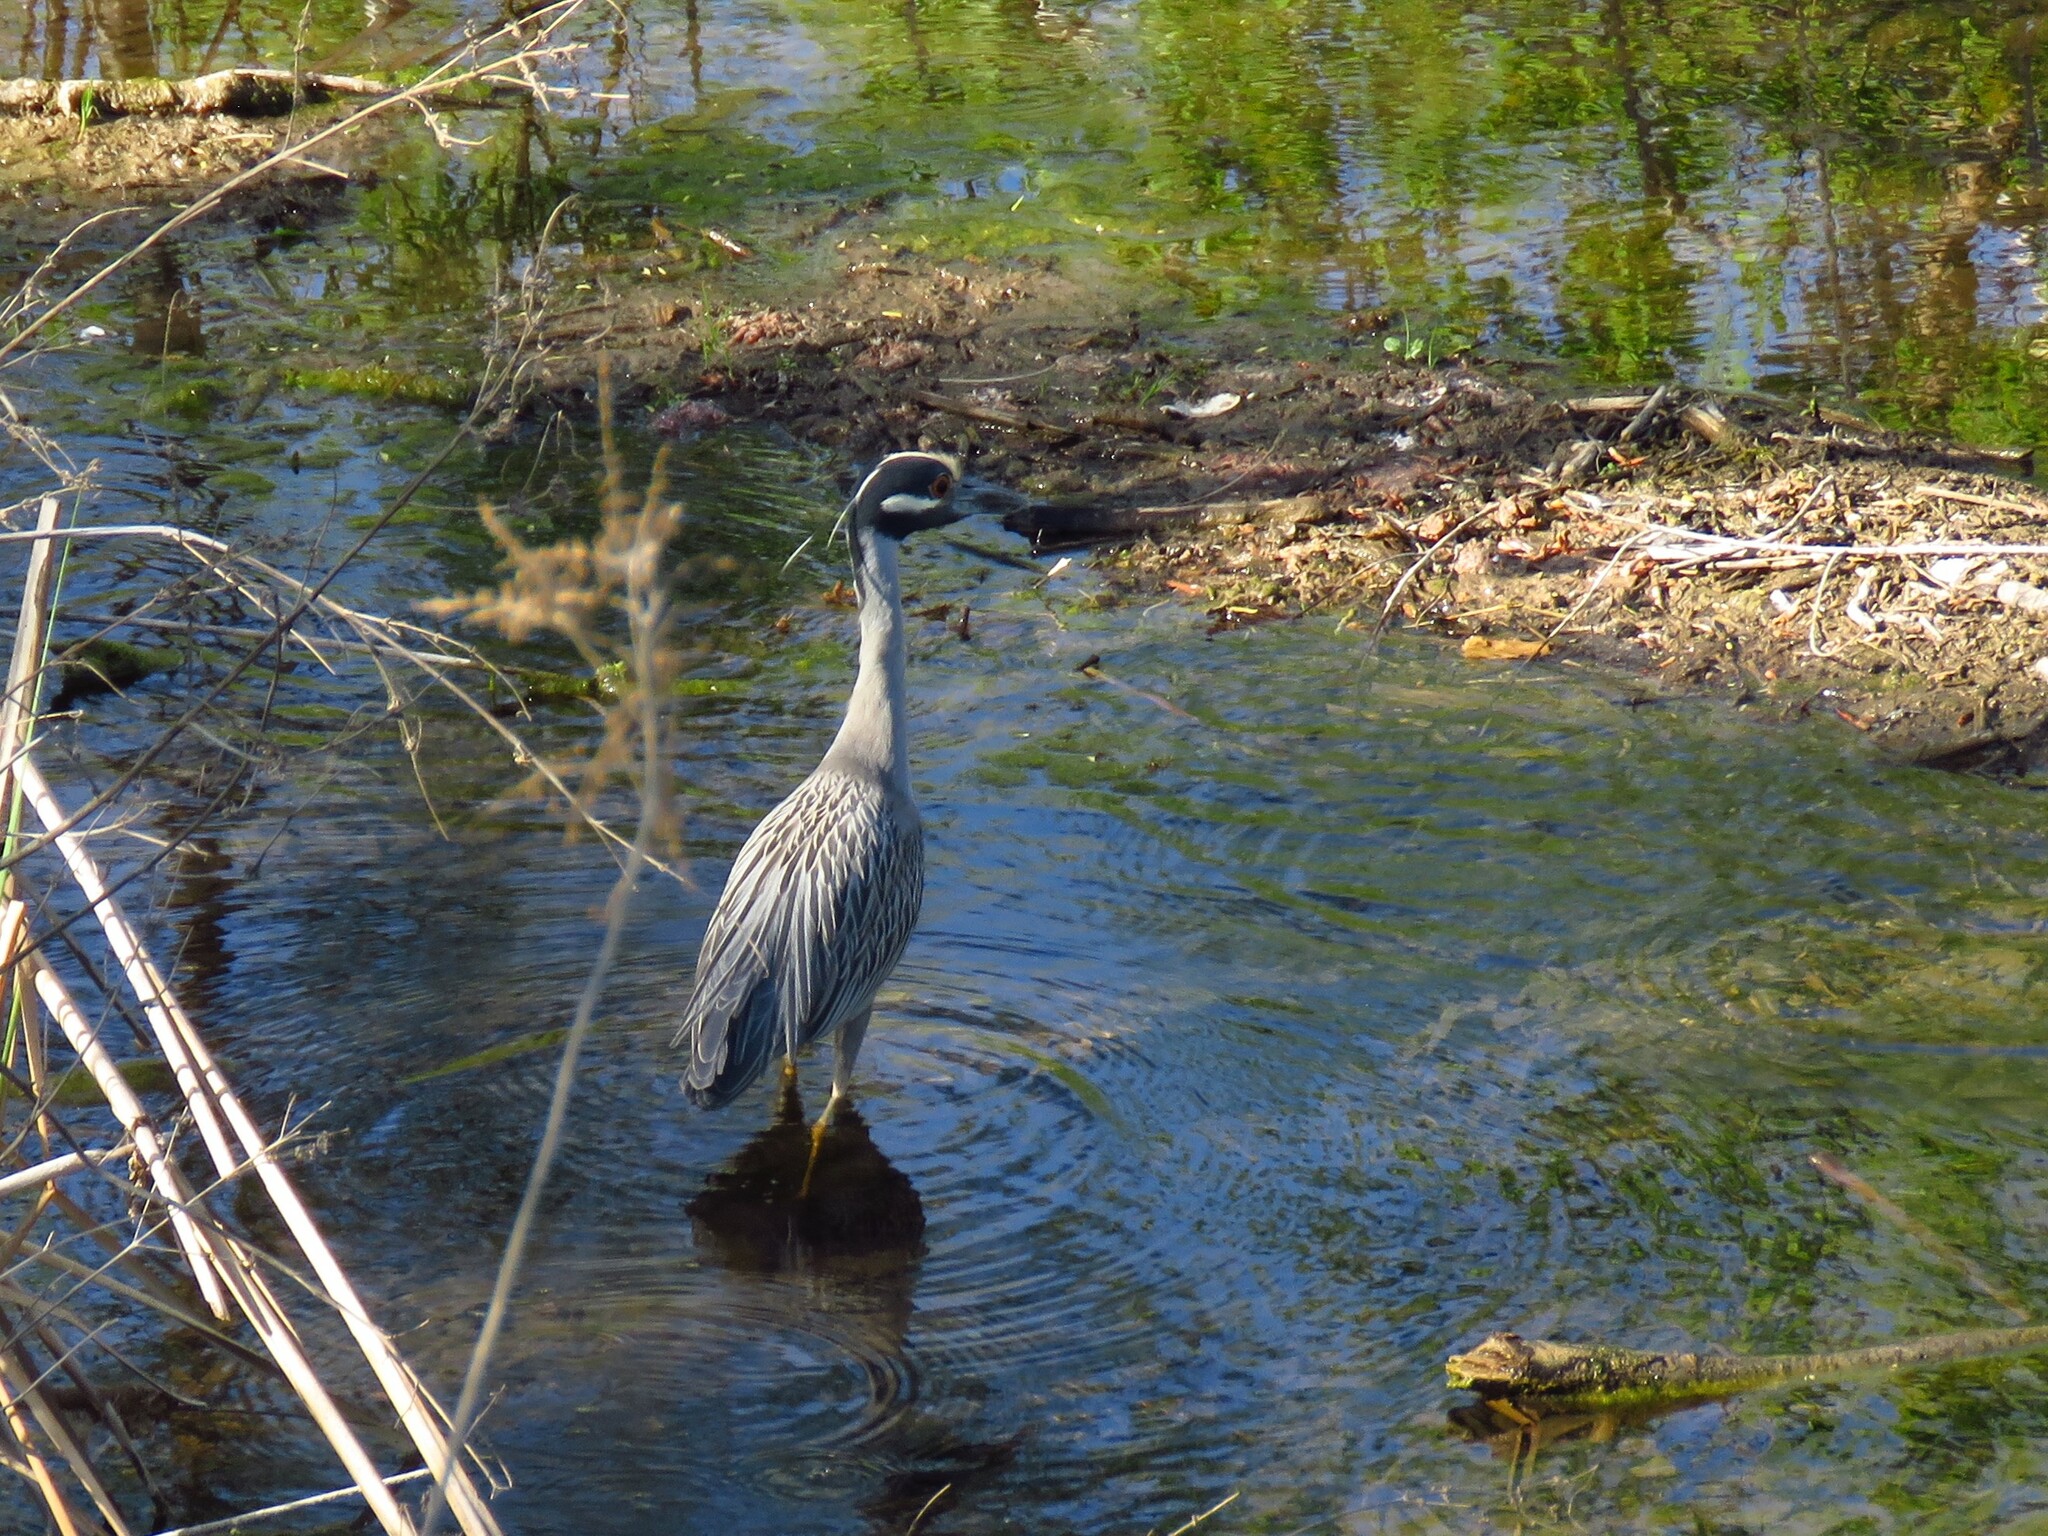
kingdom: Animalia
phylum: Chordata
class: Aves
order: Pelecaniformes
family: Ardeidae
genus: Nyctanassa
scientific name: Nyctanassa violacea
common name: Yellow-crowned night heron
